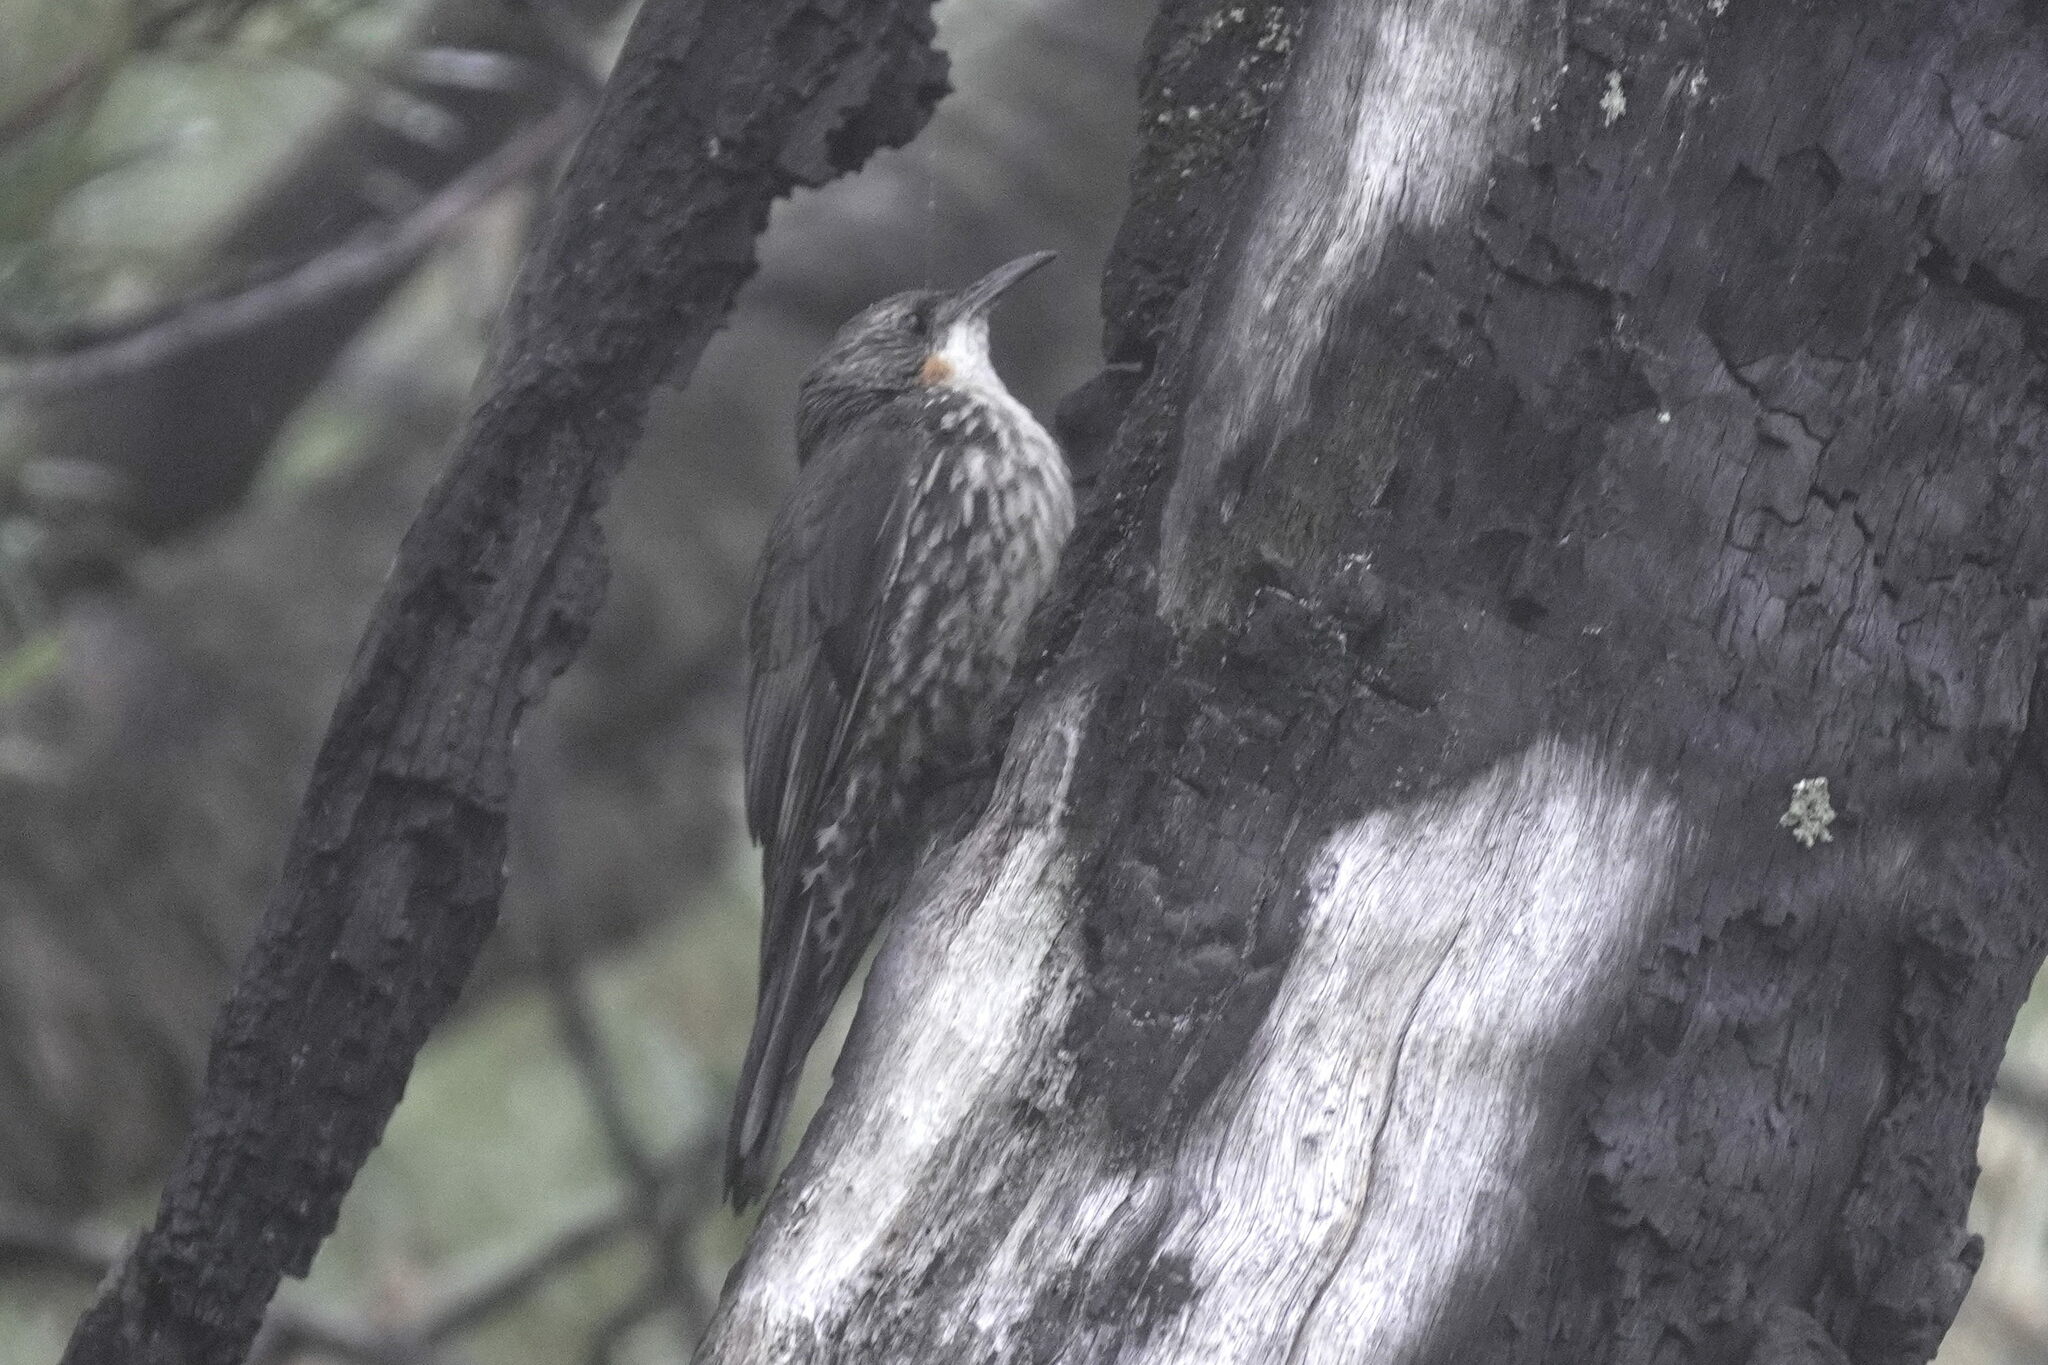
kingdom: Animalia
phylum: Chordata
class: Aves
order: Passeriformes
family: Climacteridae
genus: Cormobates
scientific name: Cormobates leucophaea
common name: White-throated treecreeper
